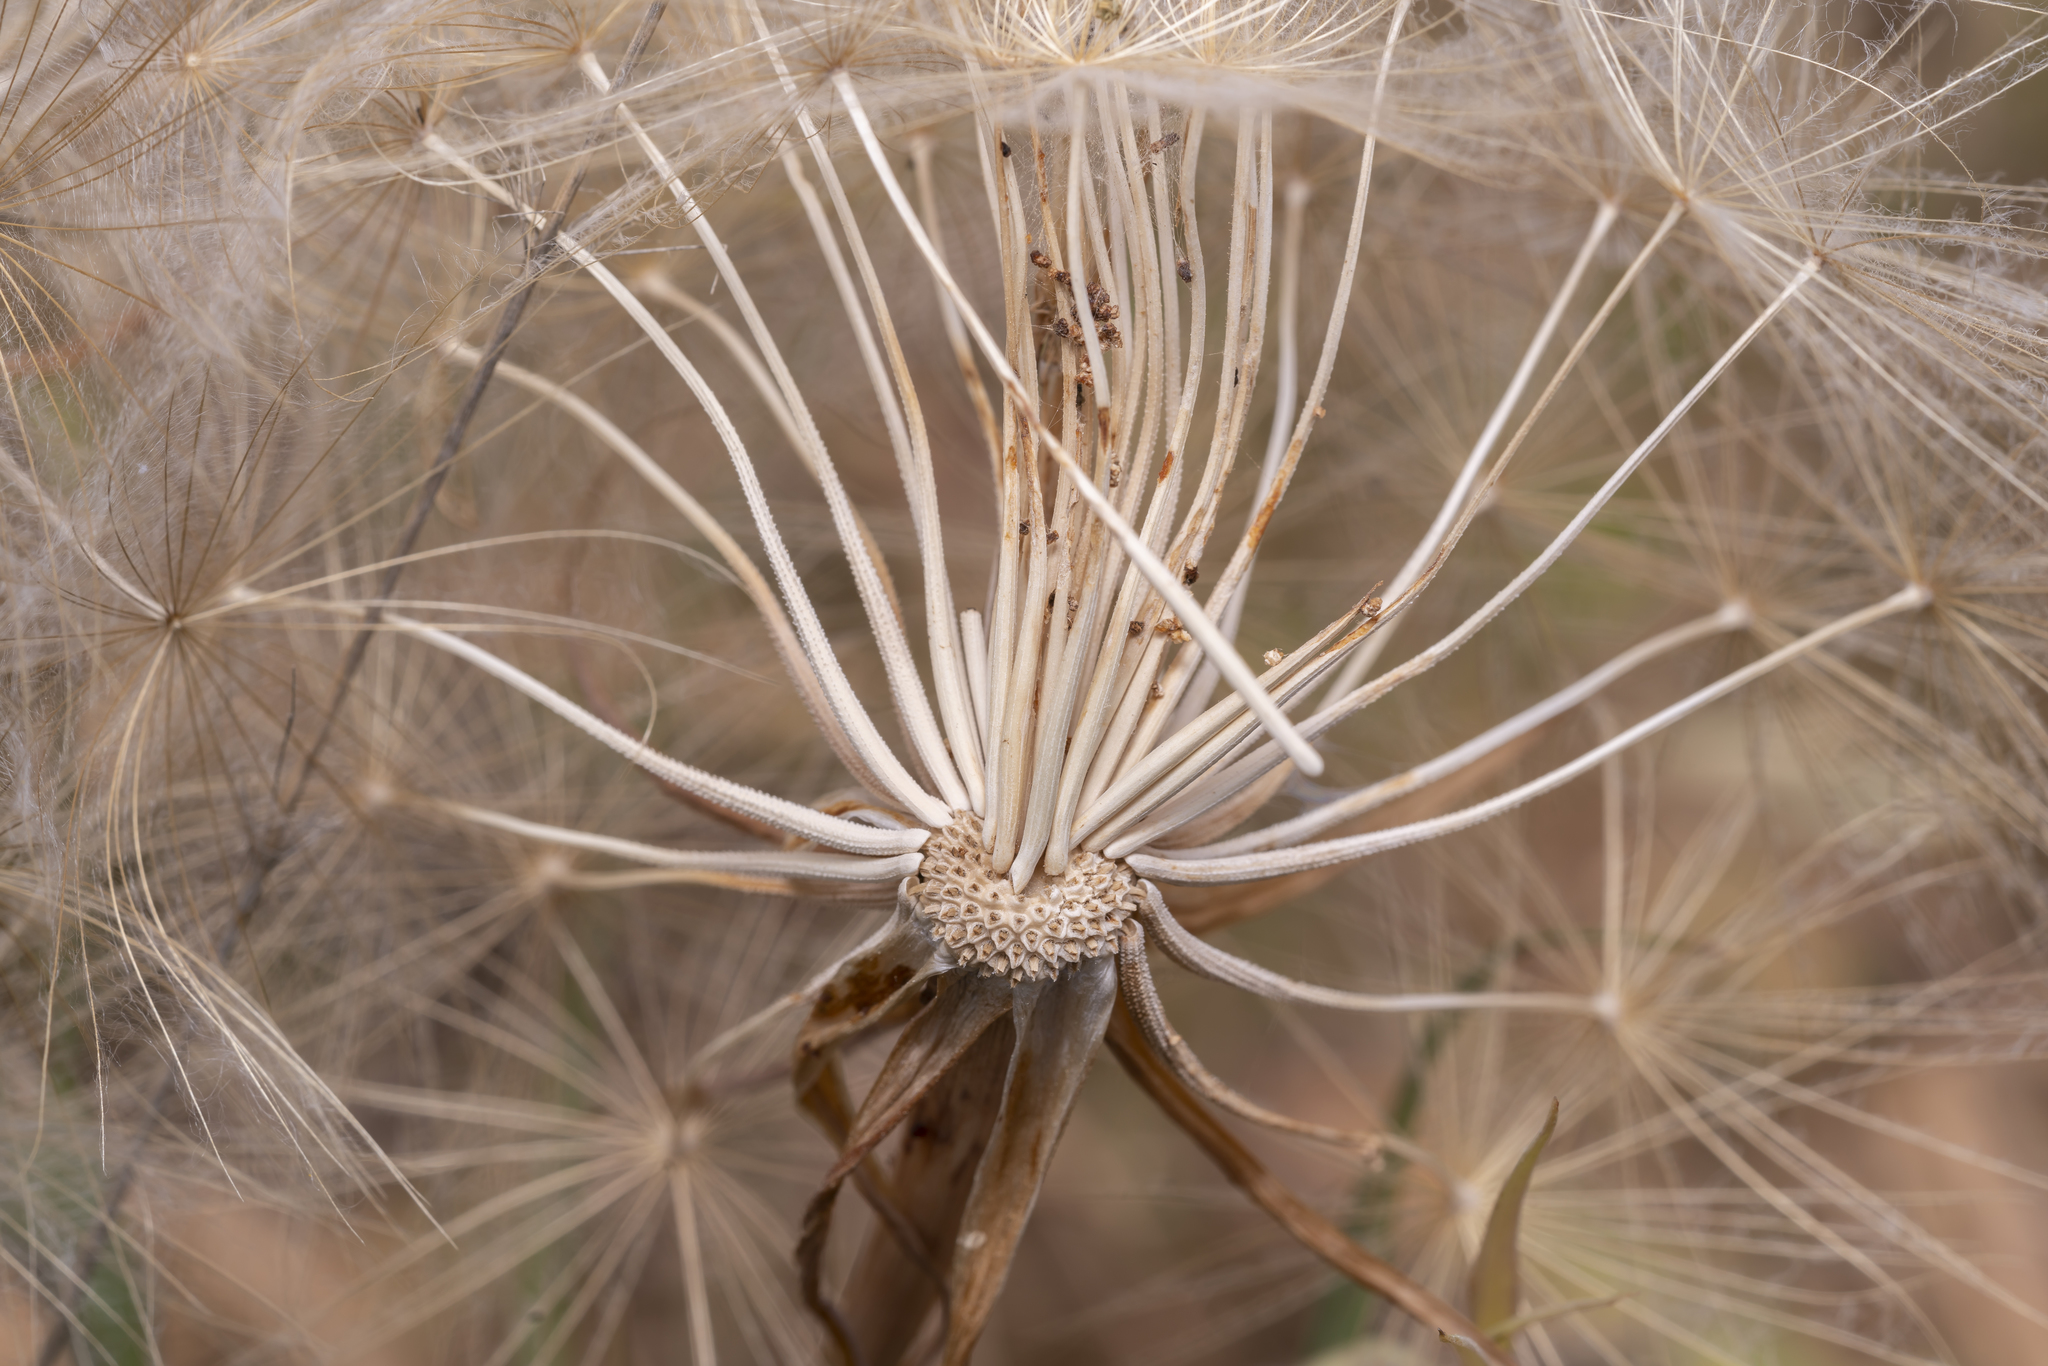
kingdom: Plantae
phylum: Tracheophyta
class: Magnoliopsida
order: Asterales
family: Asteraceae
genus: Tragopogon
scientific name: Tragopogon coelesyriacus
